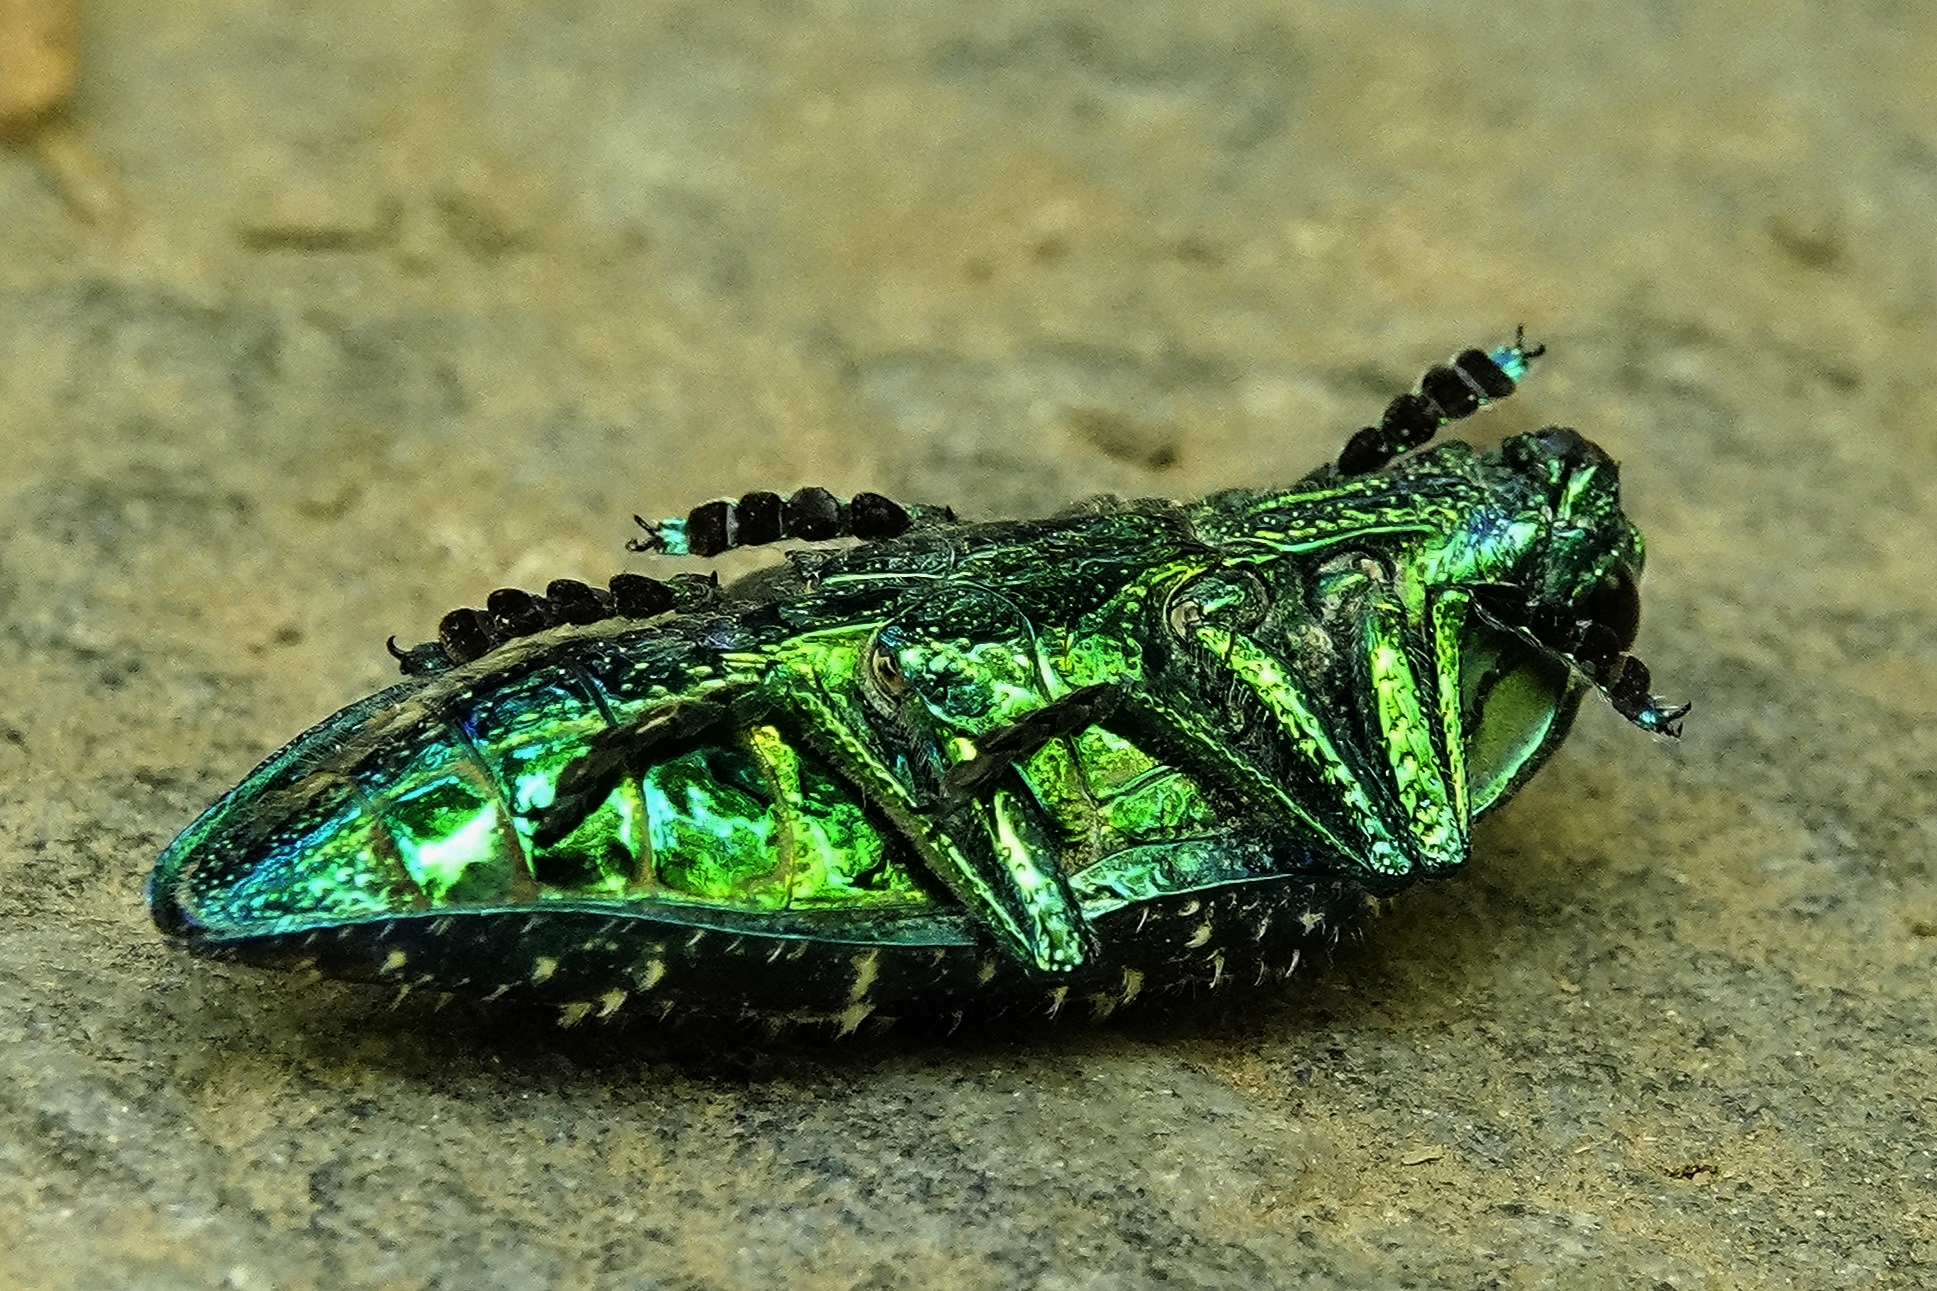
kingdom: Animalia
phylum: Arthropoda
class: Insecta
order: Coleoptera
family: Buprestidae
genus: Polybothris
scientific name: Polybothris sumptuosa
